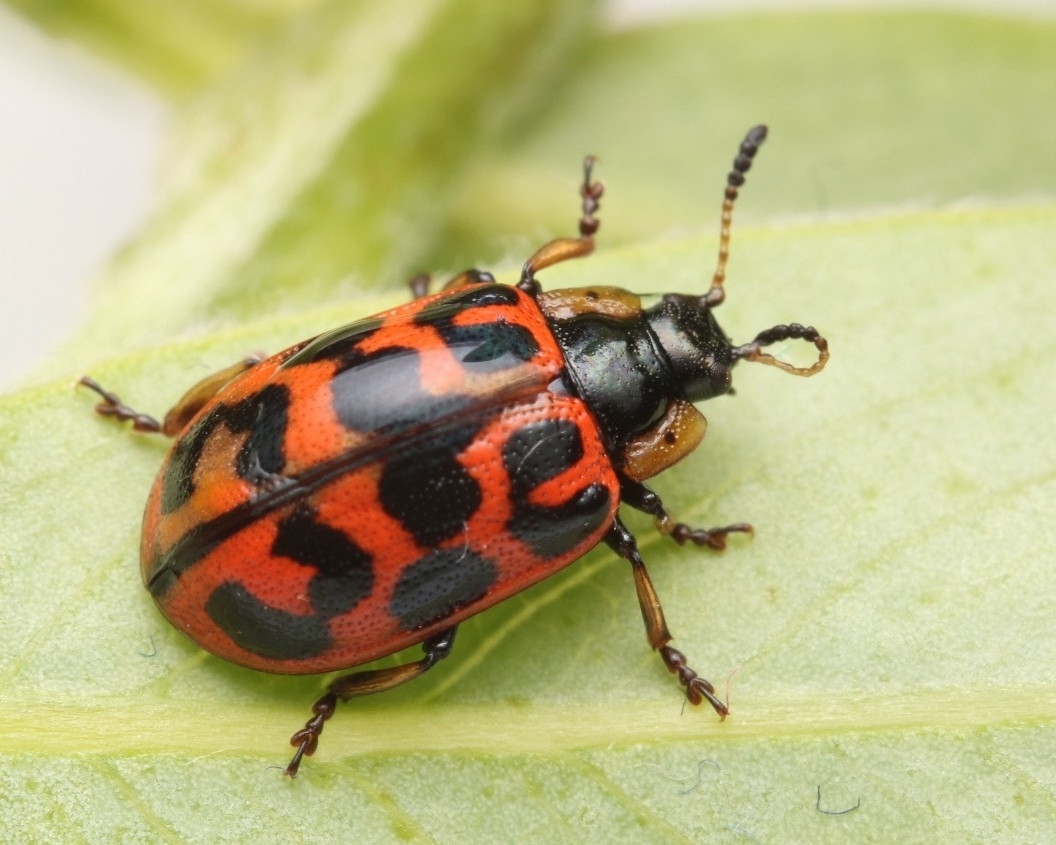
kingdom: Animalia
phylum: Arthropoda
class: Insecta
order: Coleoptera
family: Chrysomelidae
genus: Chrysomela
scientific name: Chrysomela falsa
